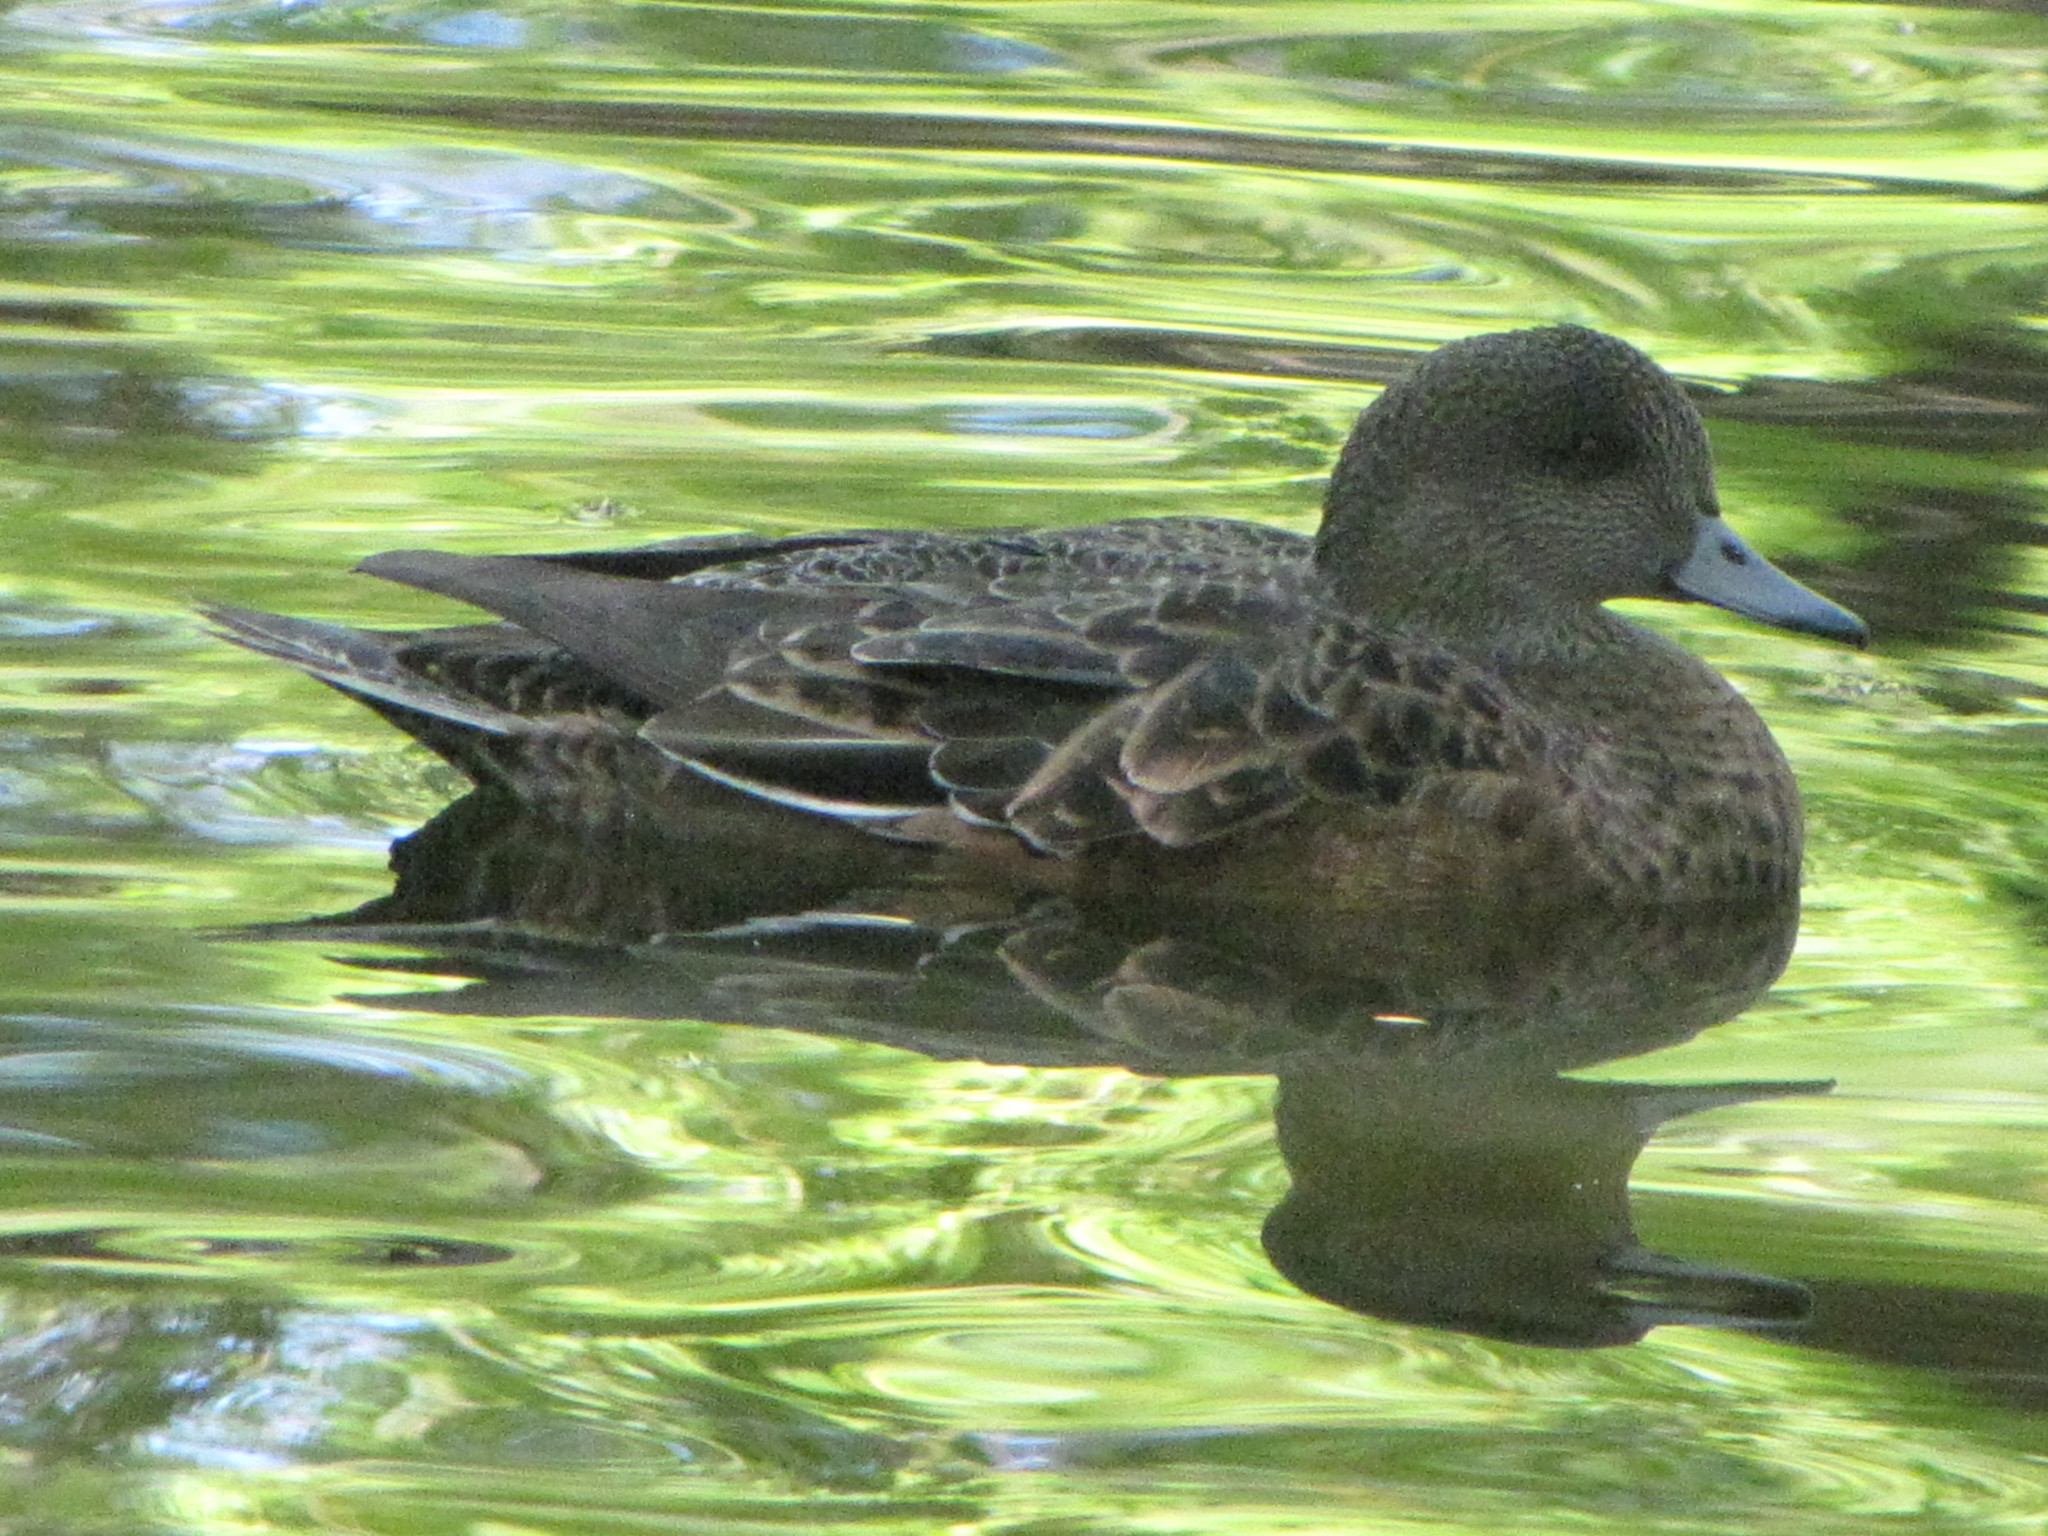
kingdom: Animalia
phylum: Chordata
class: Aves
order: Anseriformes
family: Anatidae
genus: Mareca
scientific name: Mareca americana
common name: American wigeon
